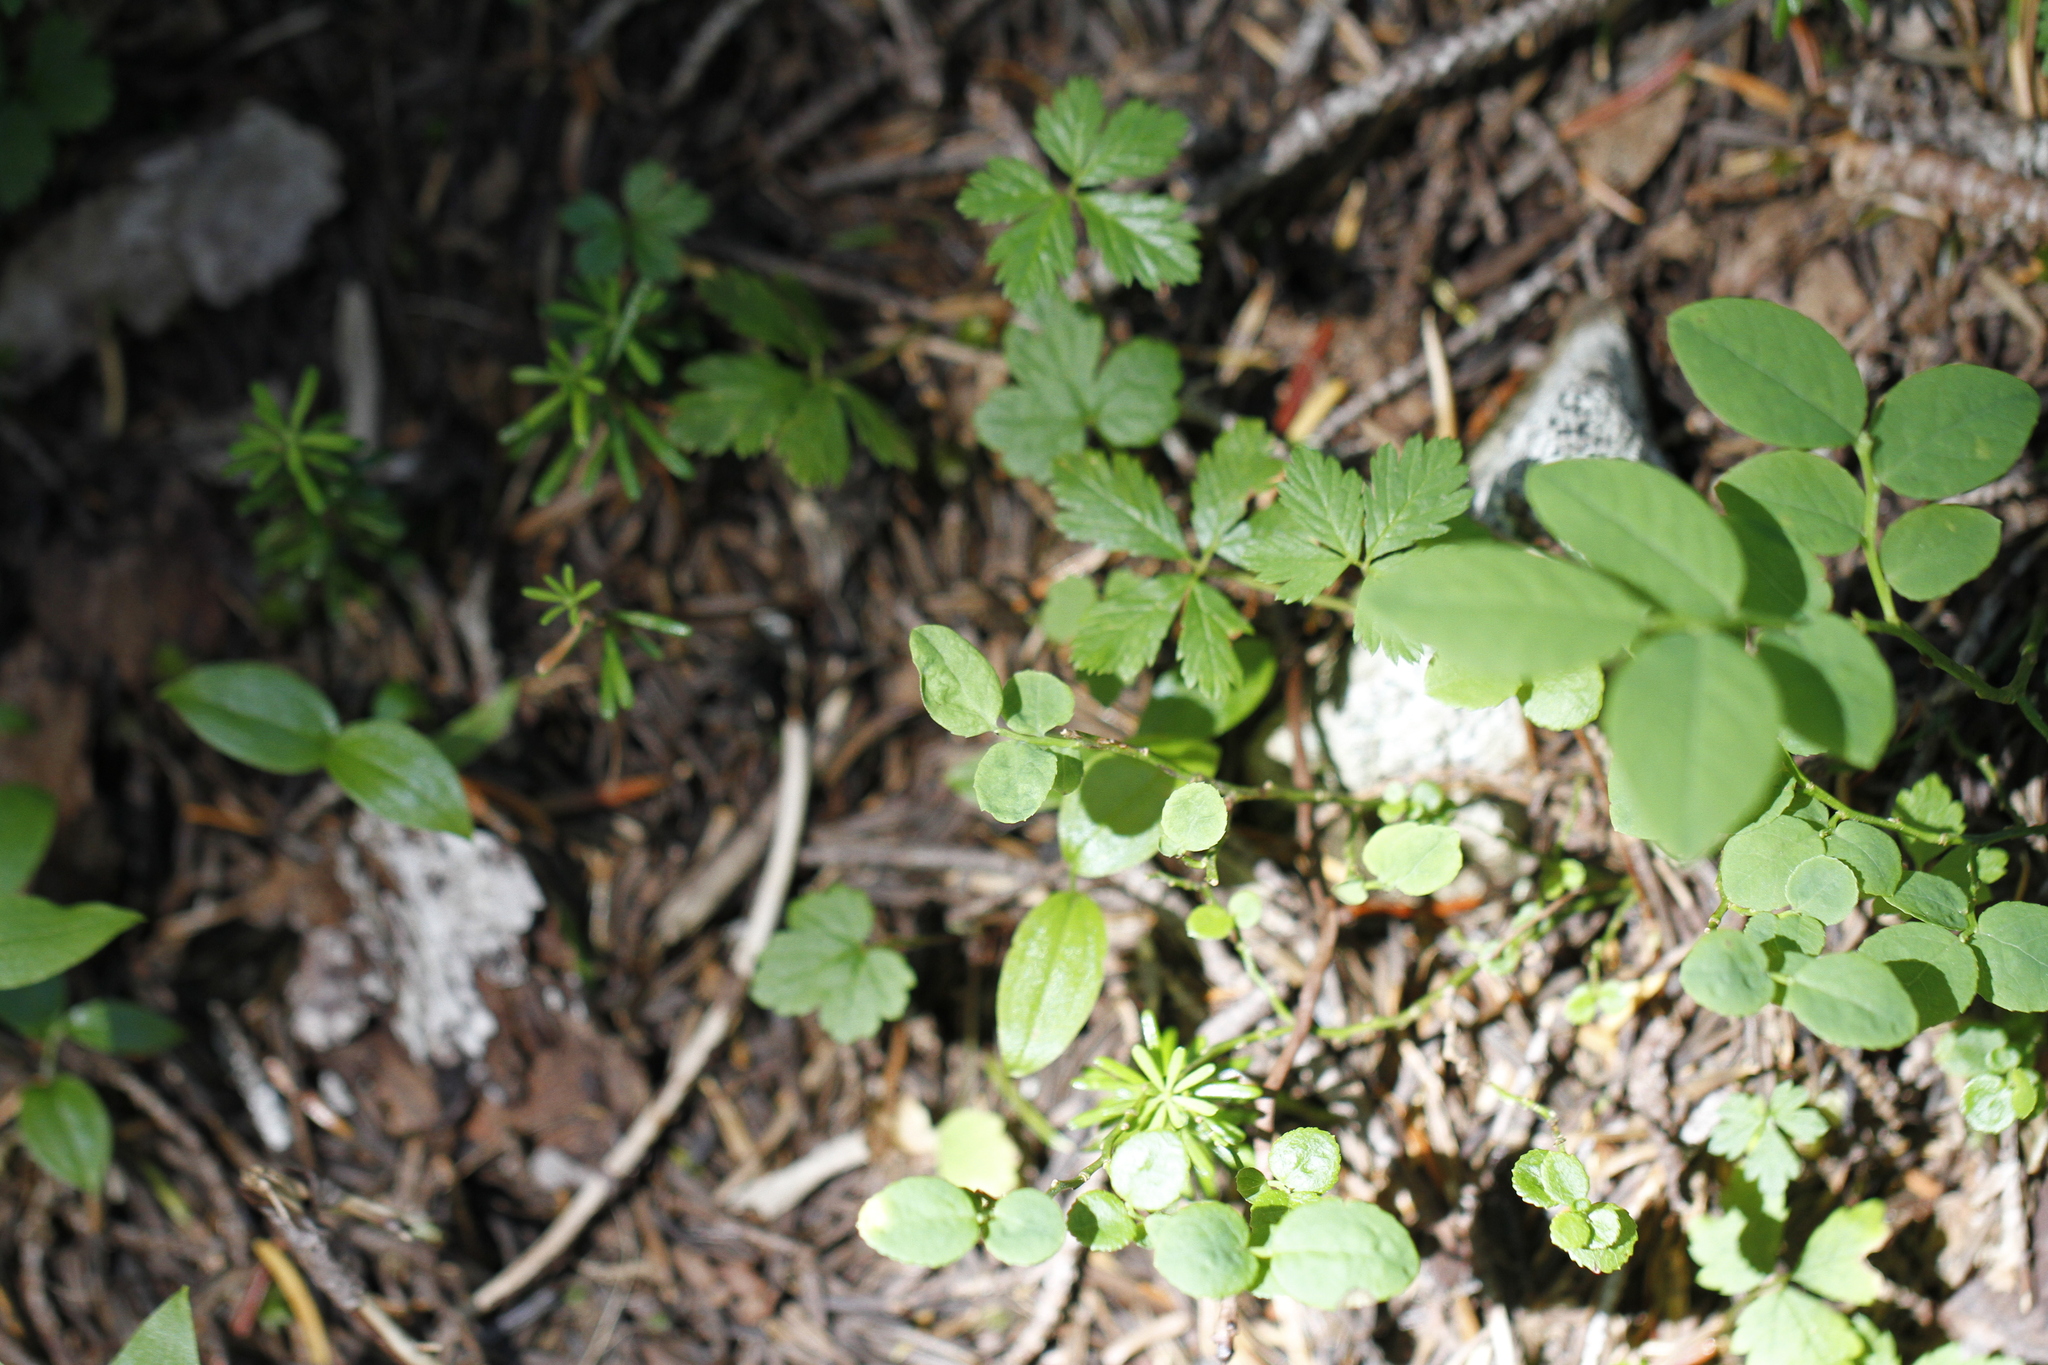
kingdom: Plantae
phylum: Tracheophyta
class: Magnoliopsida
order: Rosales
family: Rosaceae
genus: Rubus
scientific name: Rubus pedatus
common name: Creeping raspberry
